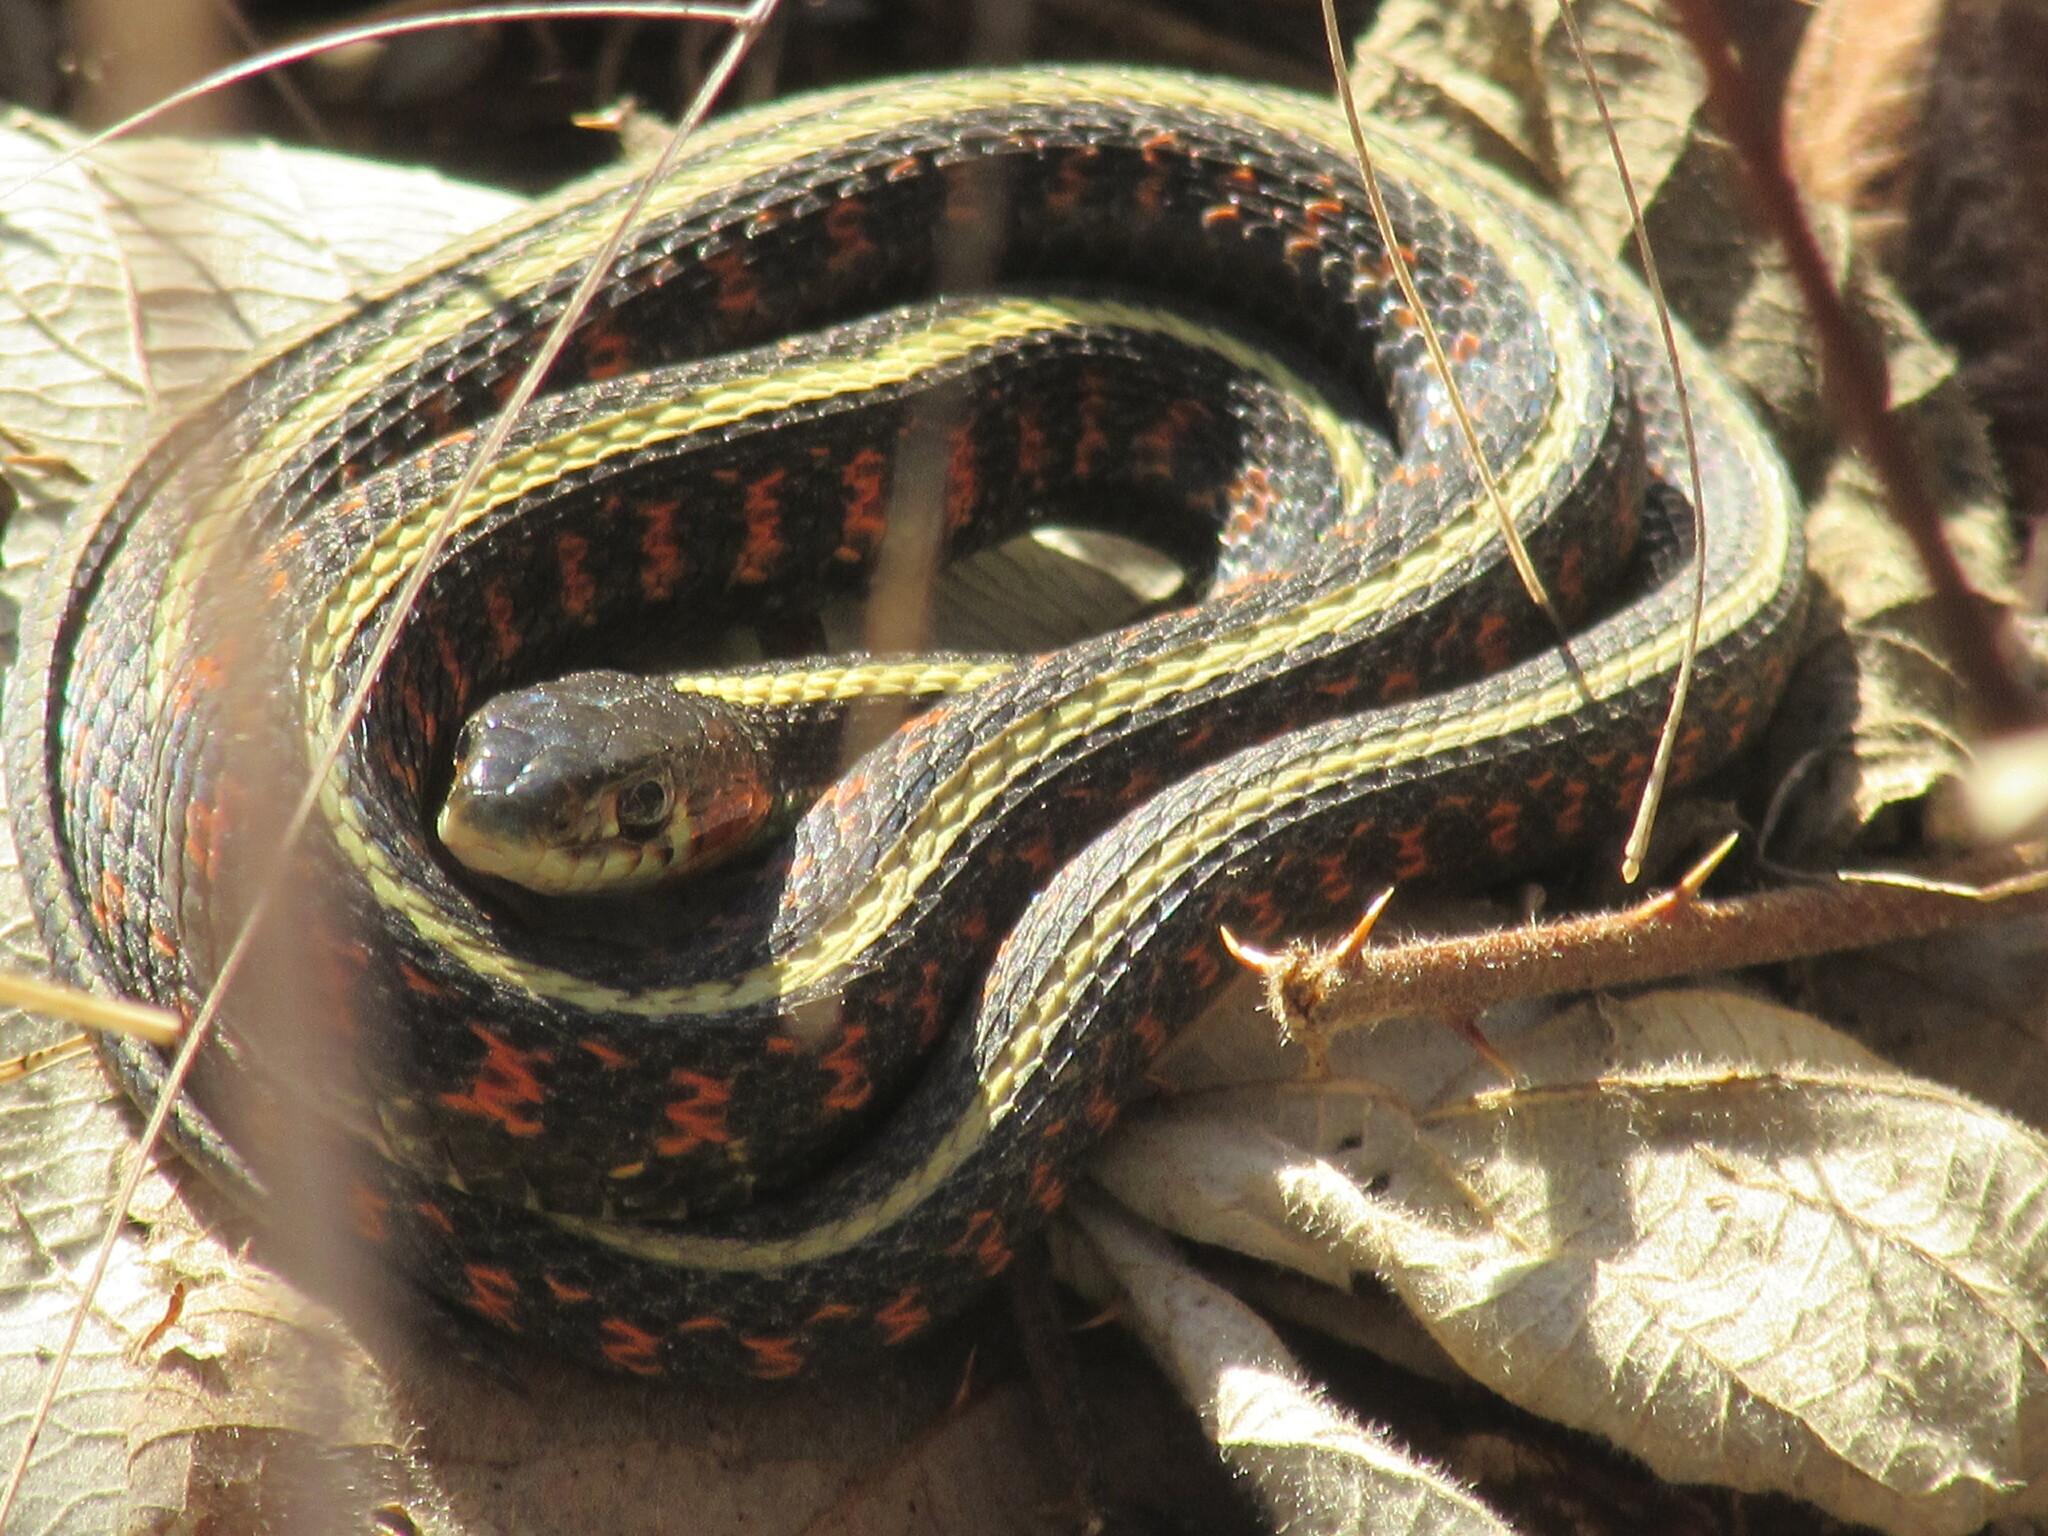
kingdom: Animalia
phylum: Chordata
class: Squamata
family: Colubridae
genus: Thamnophis
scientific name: Thamnophis sirtalis
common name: Common garter snake
